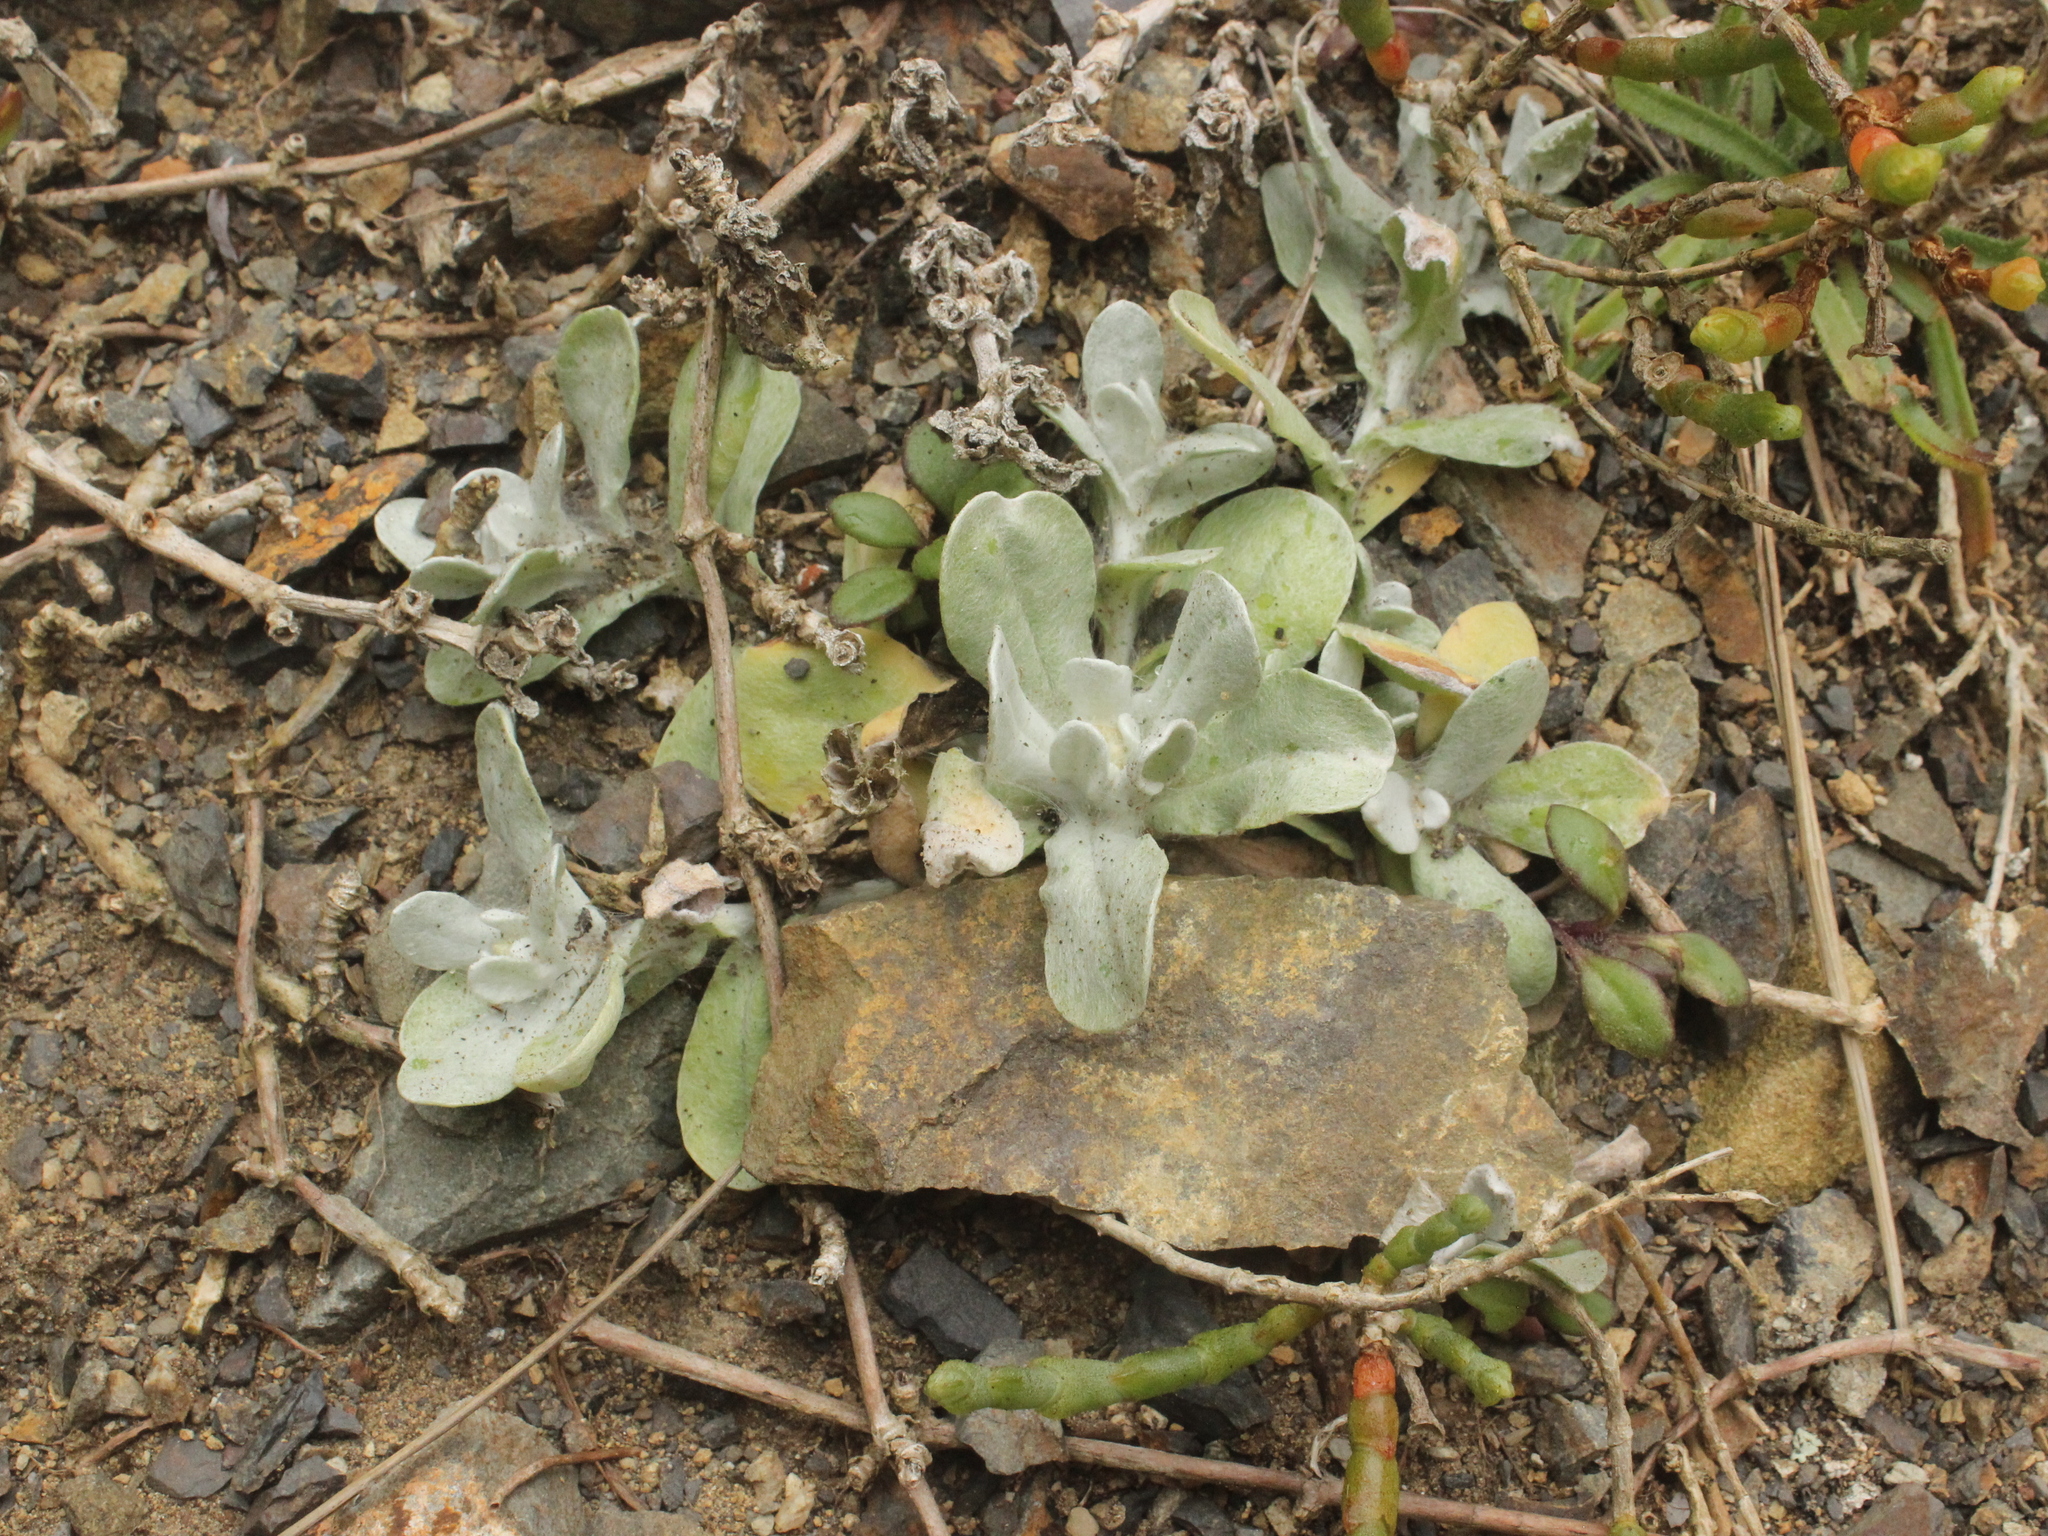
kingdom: Plantae
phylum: Tracheophyta
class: Magnoliopsida
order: Asterales
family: Asteraceae
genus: Pseudognaphalium
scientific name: Pseudognaphalium
